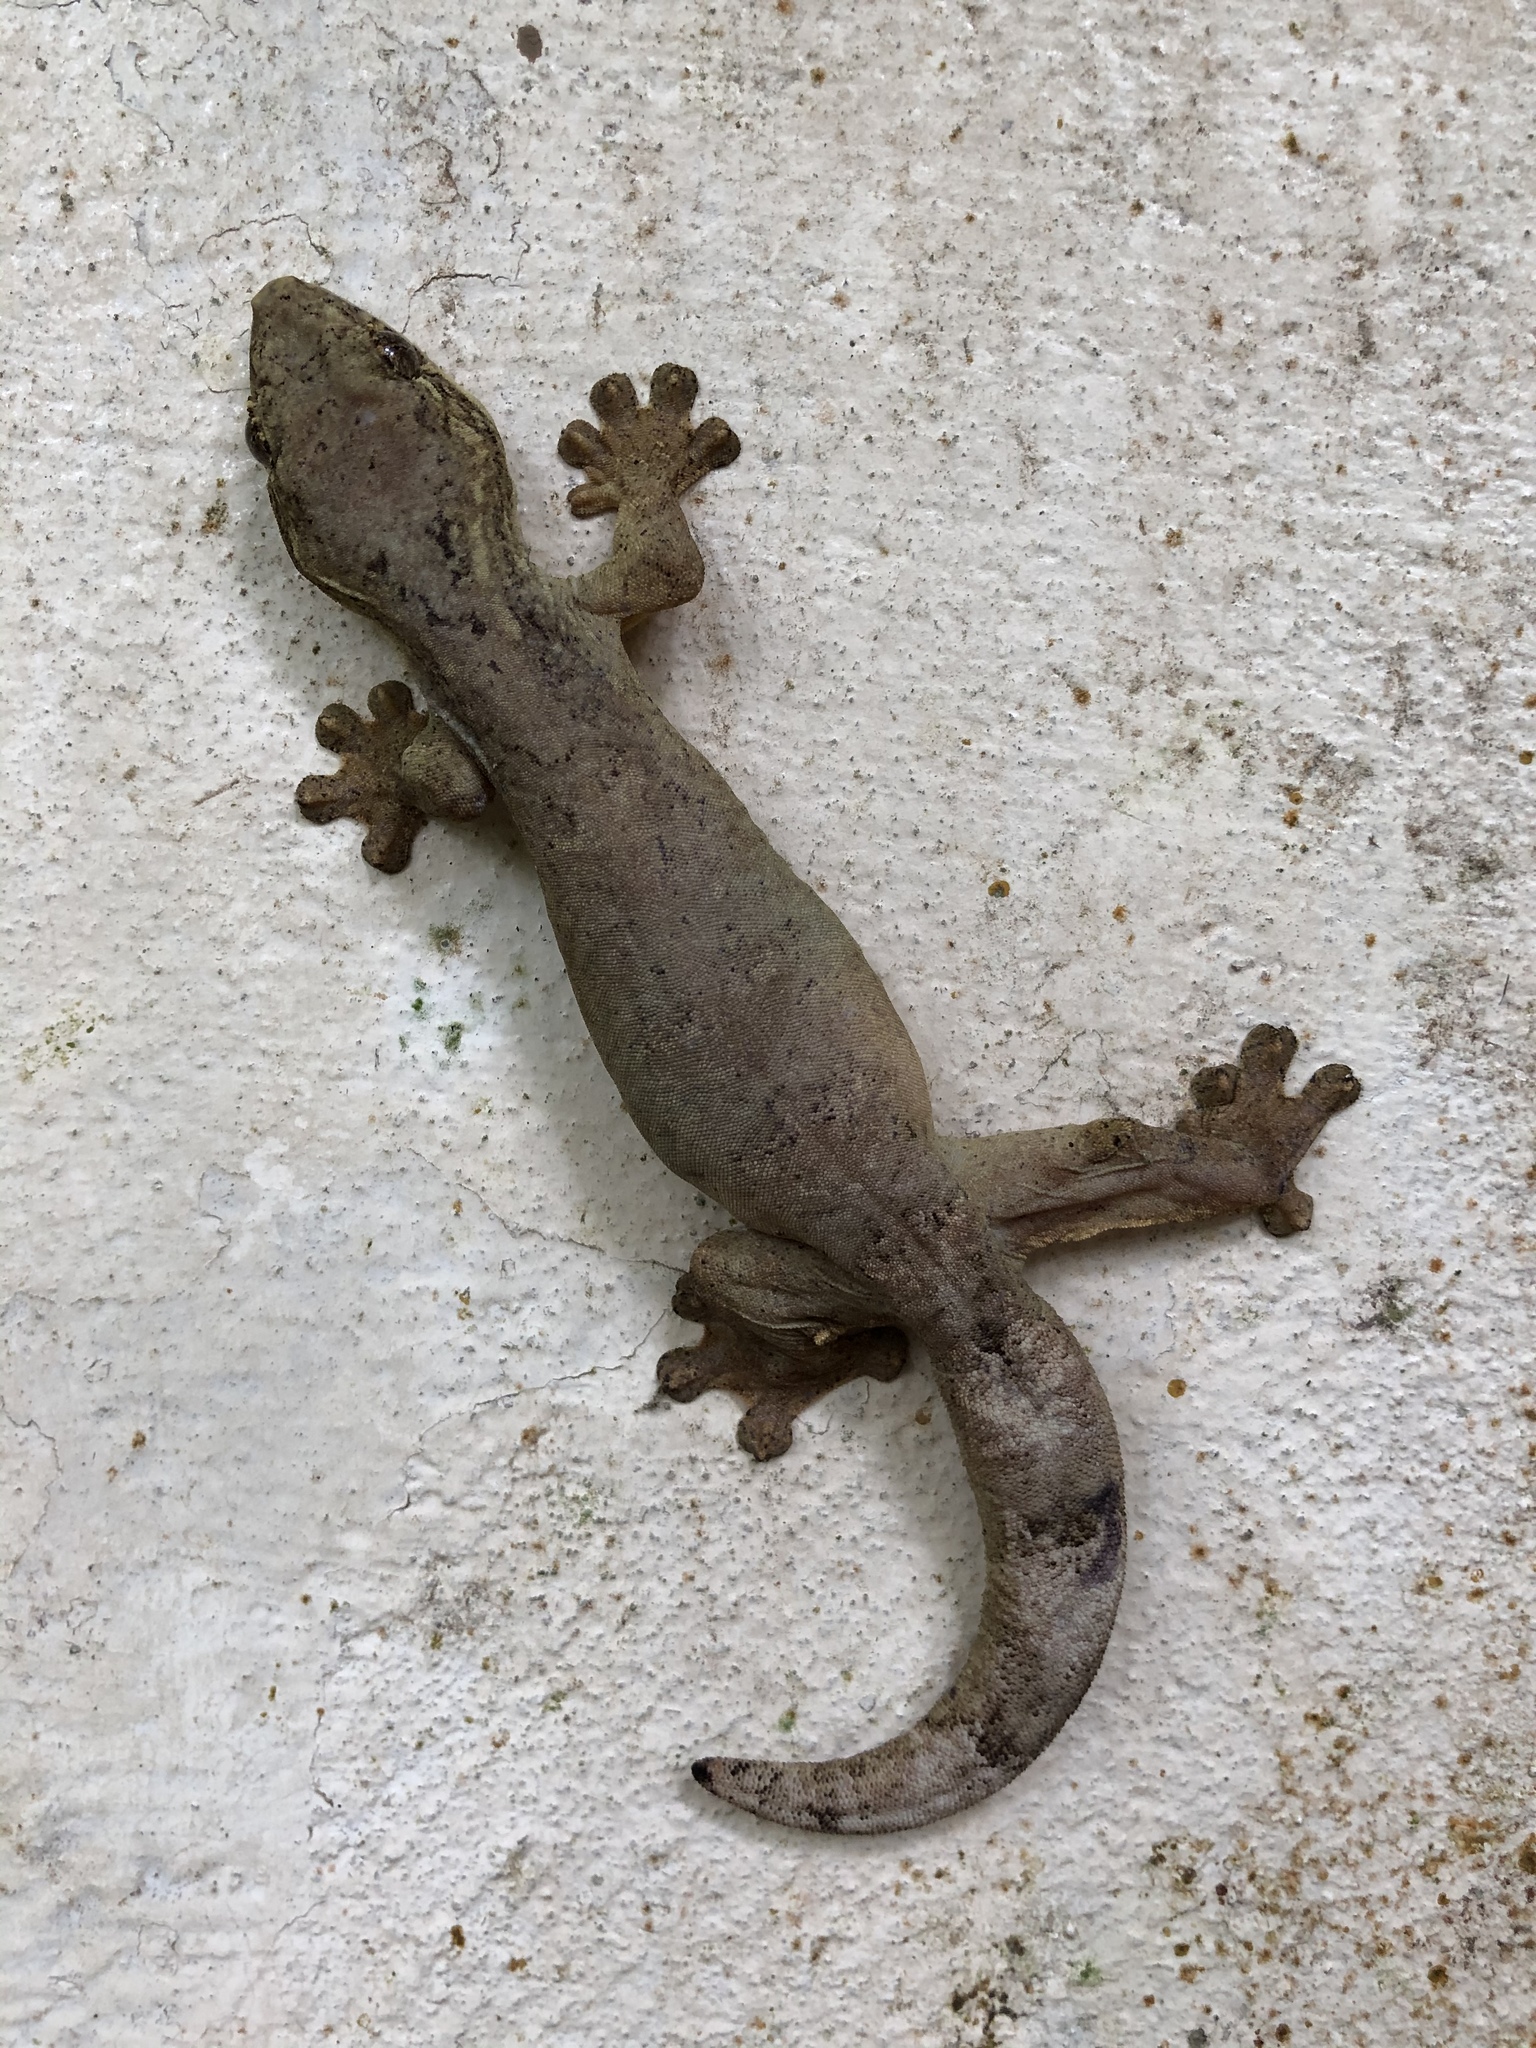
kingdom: Animalia
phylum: Chordata
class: Squamata
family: Phyllodactylidae
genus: Thecadactylus
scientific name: Thecadactylus solimoensis
